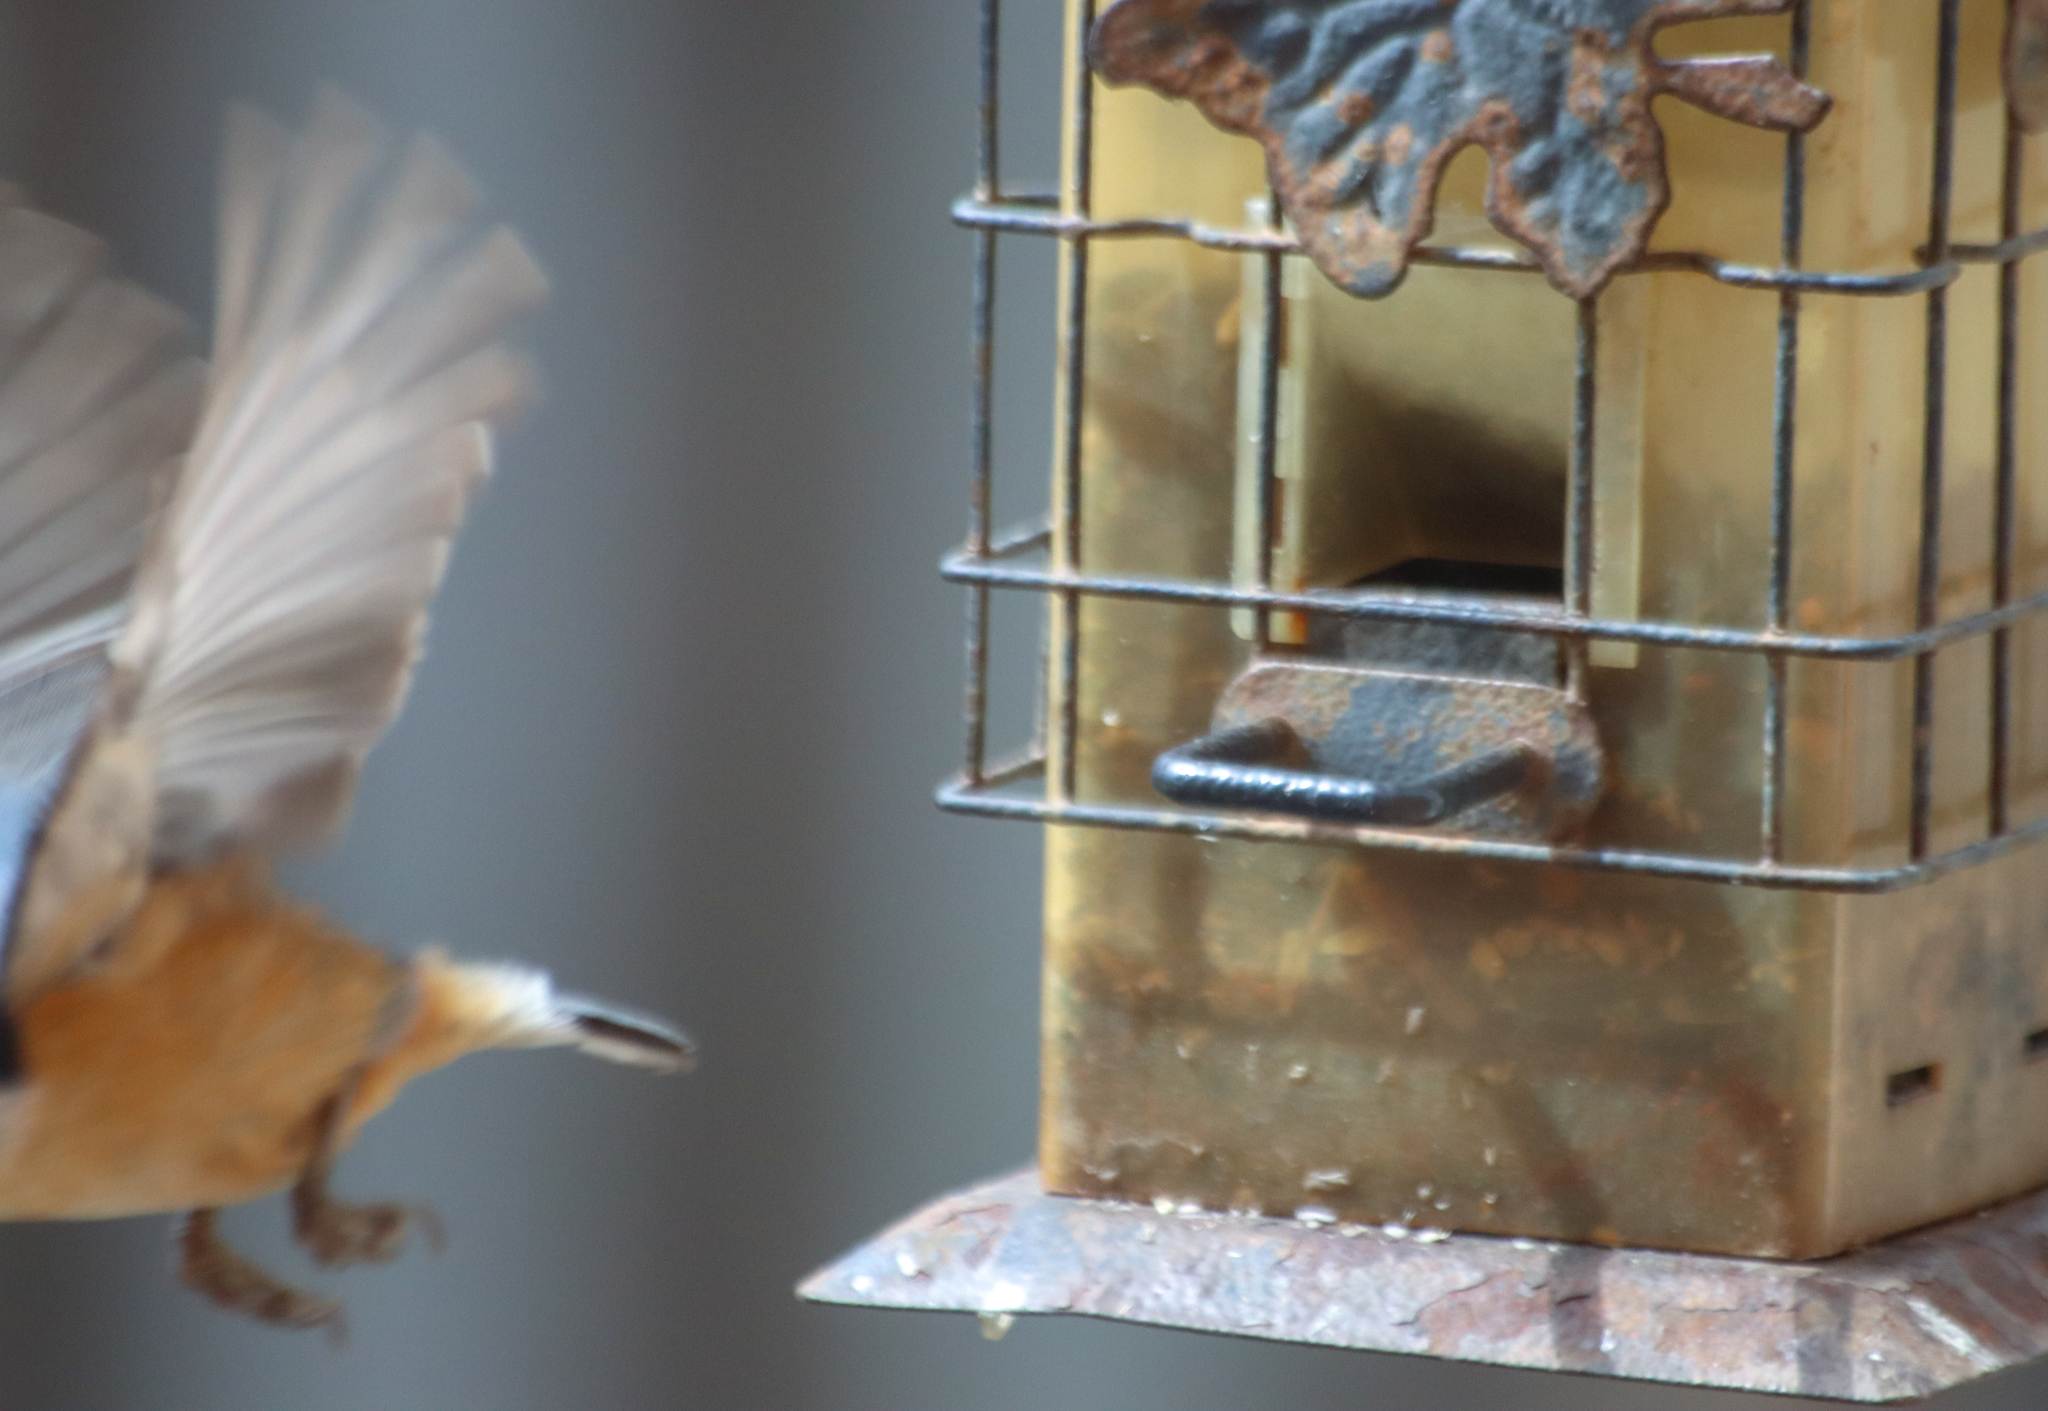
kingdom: Animalia
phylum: Chordata
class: Aves
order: Passeriformes
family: Sittidae
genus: Sitta
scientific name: Sitta canadensis
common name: Red-breasted nuthatch
